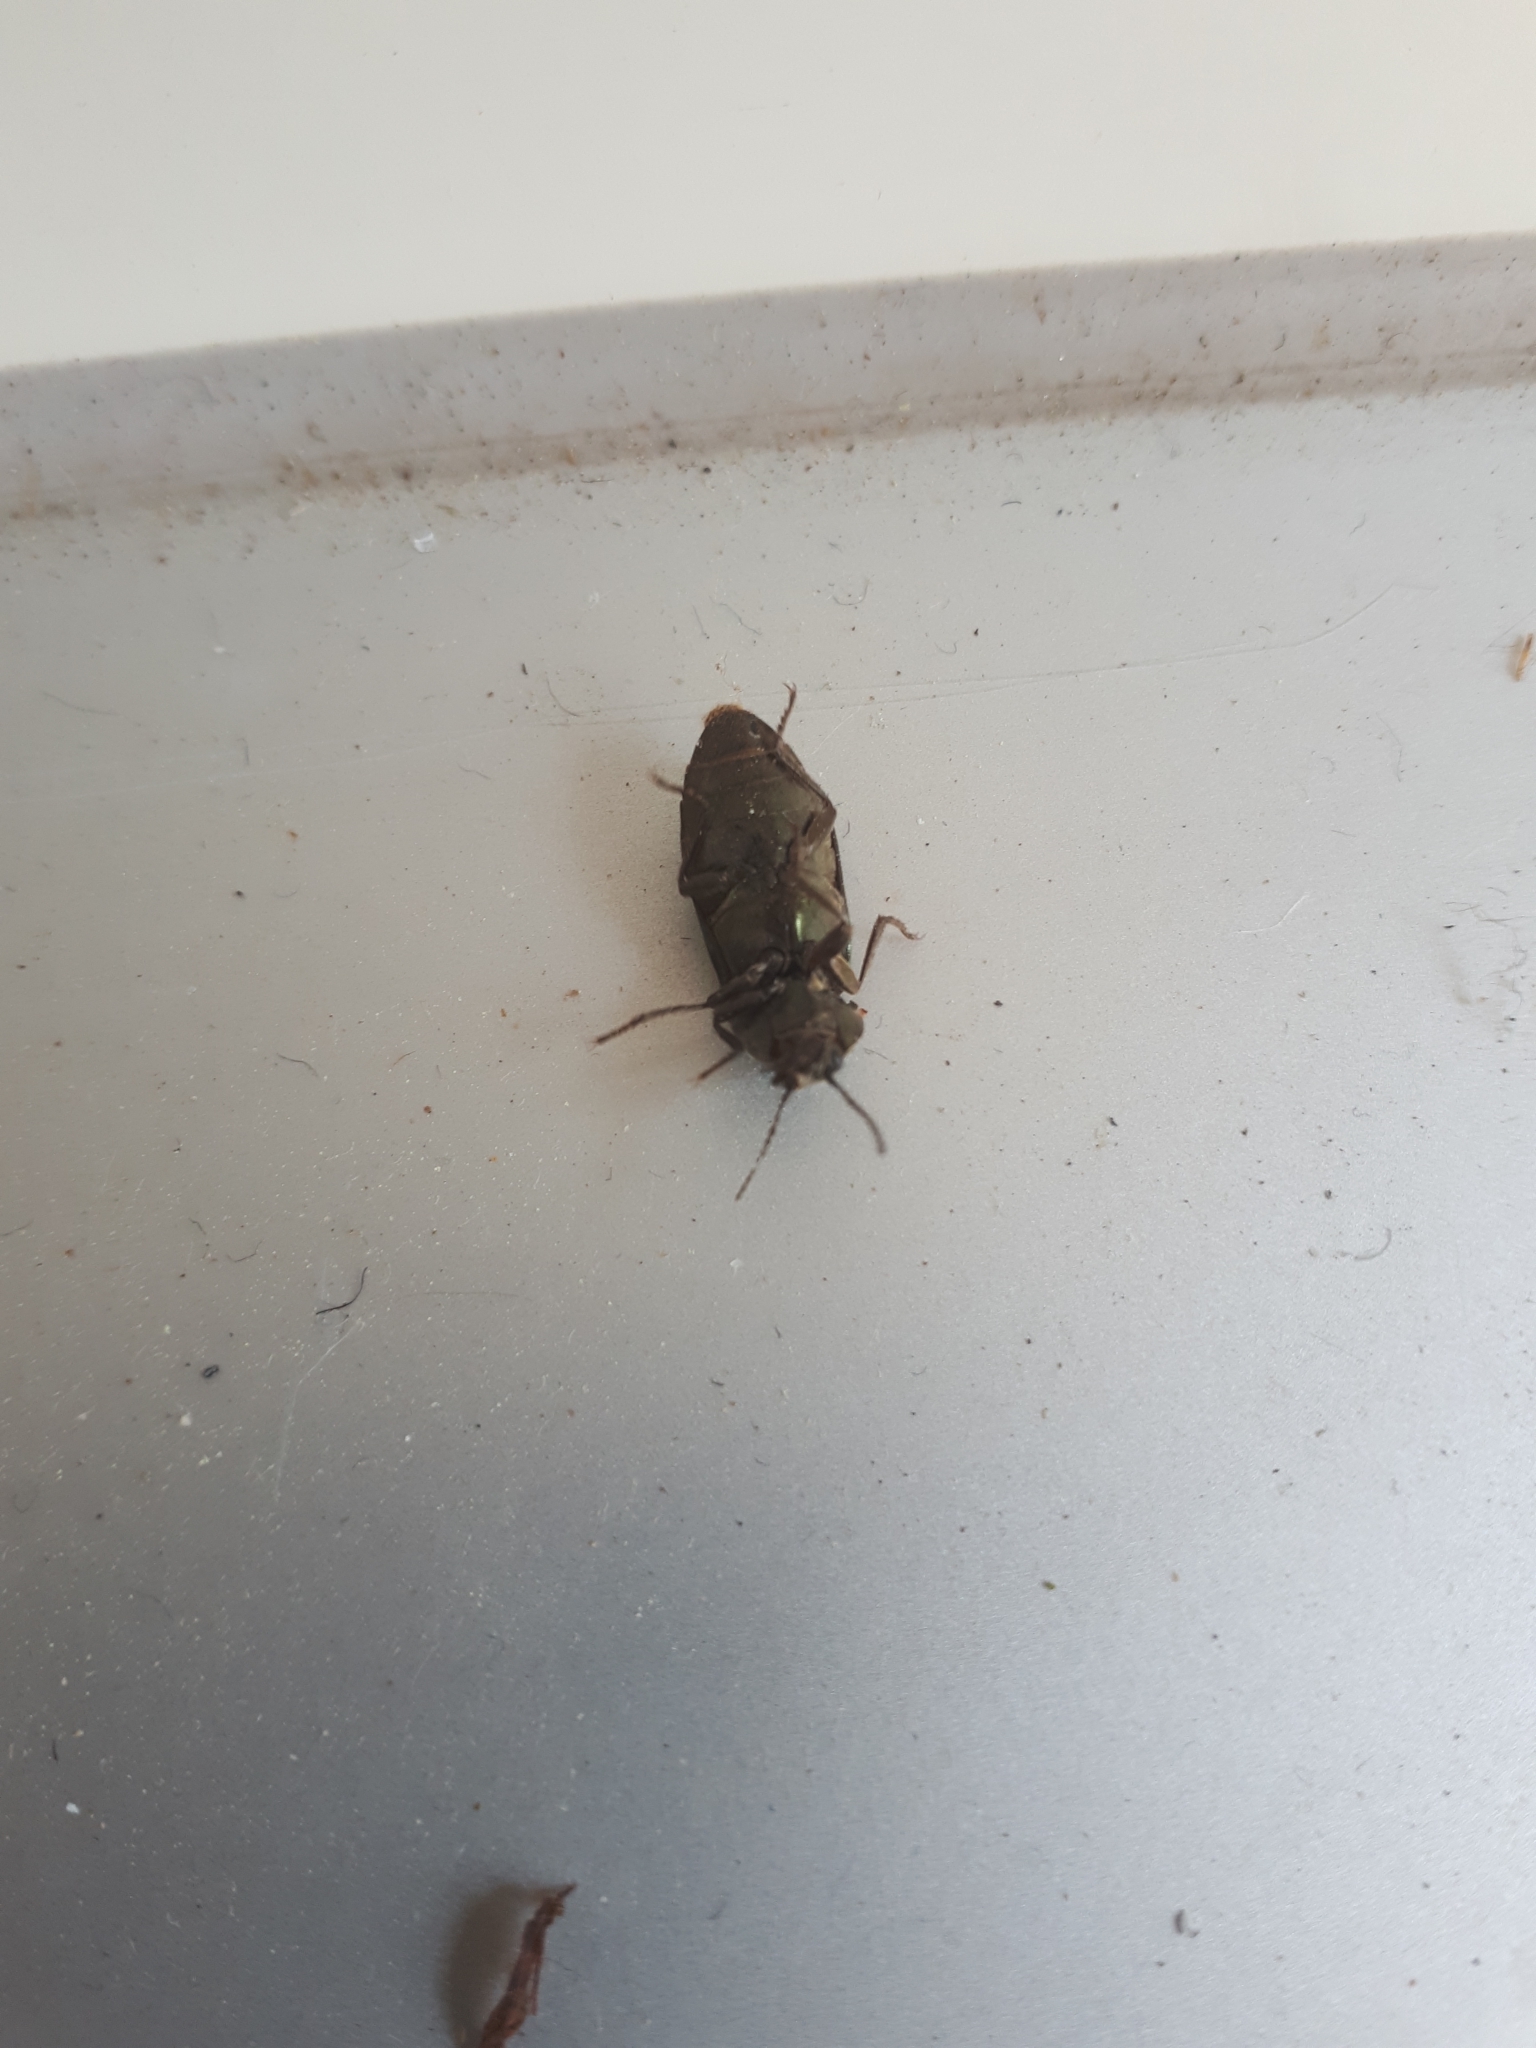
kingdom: Animalia
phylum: Arthropoda
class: Insecta
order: Coleoptera
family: Elateridae
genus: Selatosomus
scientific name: Selatosomus latus
